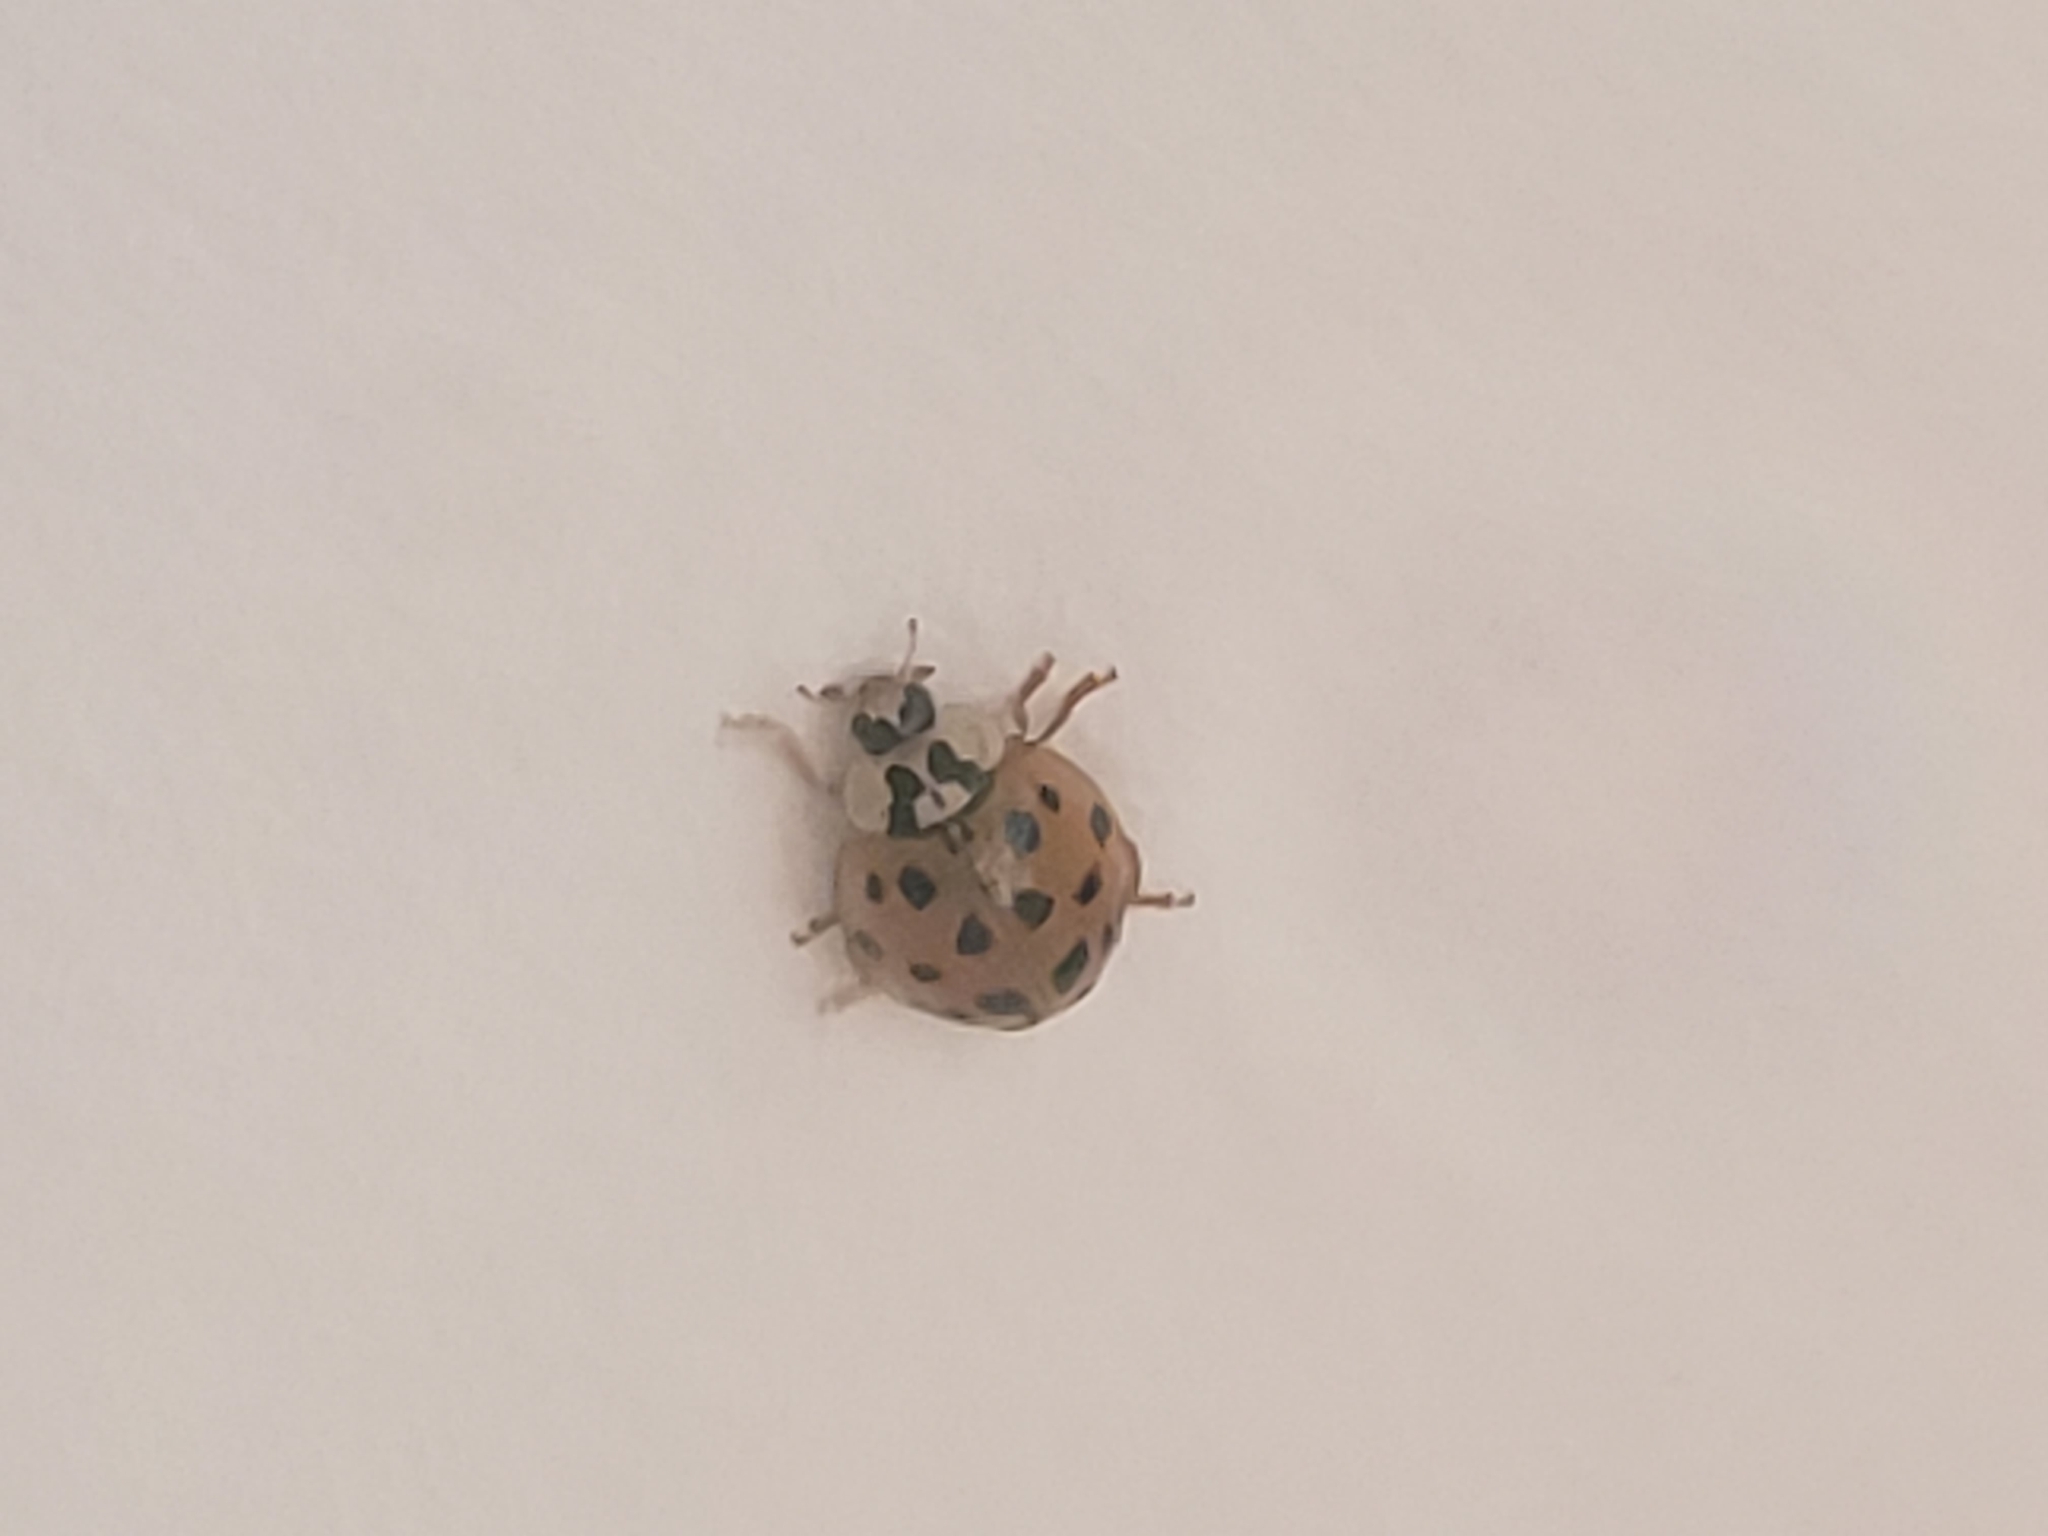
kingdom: Animalia
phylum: Arthropoda
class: Insecta
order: Coleoptera
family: Coccinellidae
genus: Harmonia
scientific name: Harmonia axyridis
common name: Harlequin ladybird
